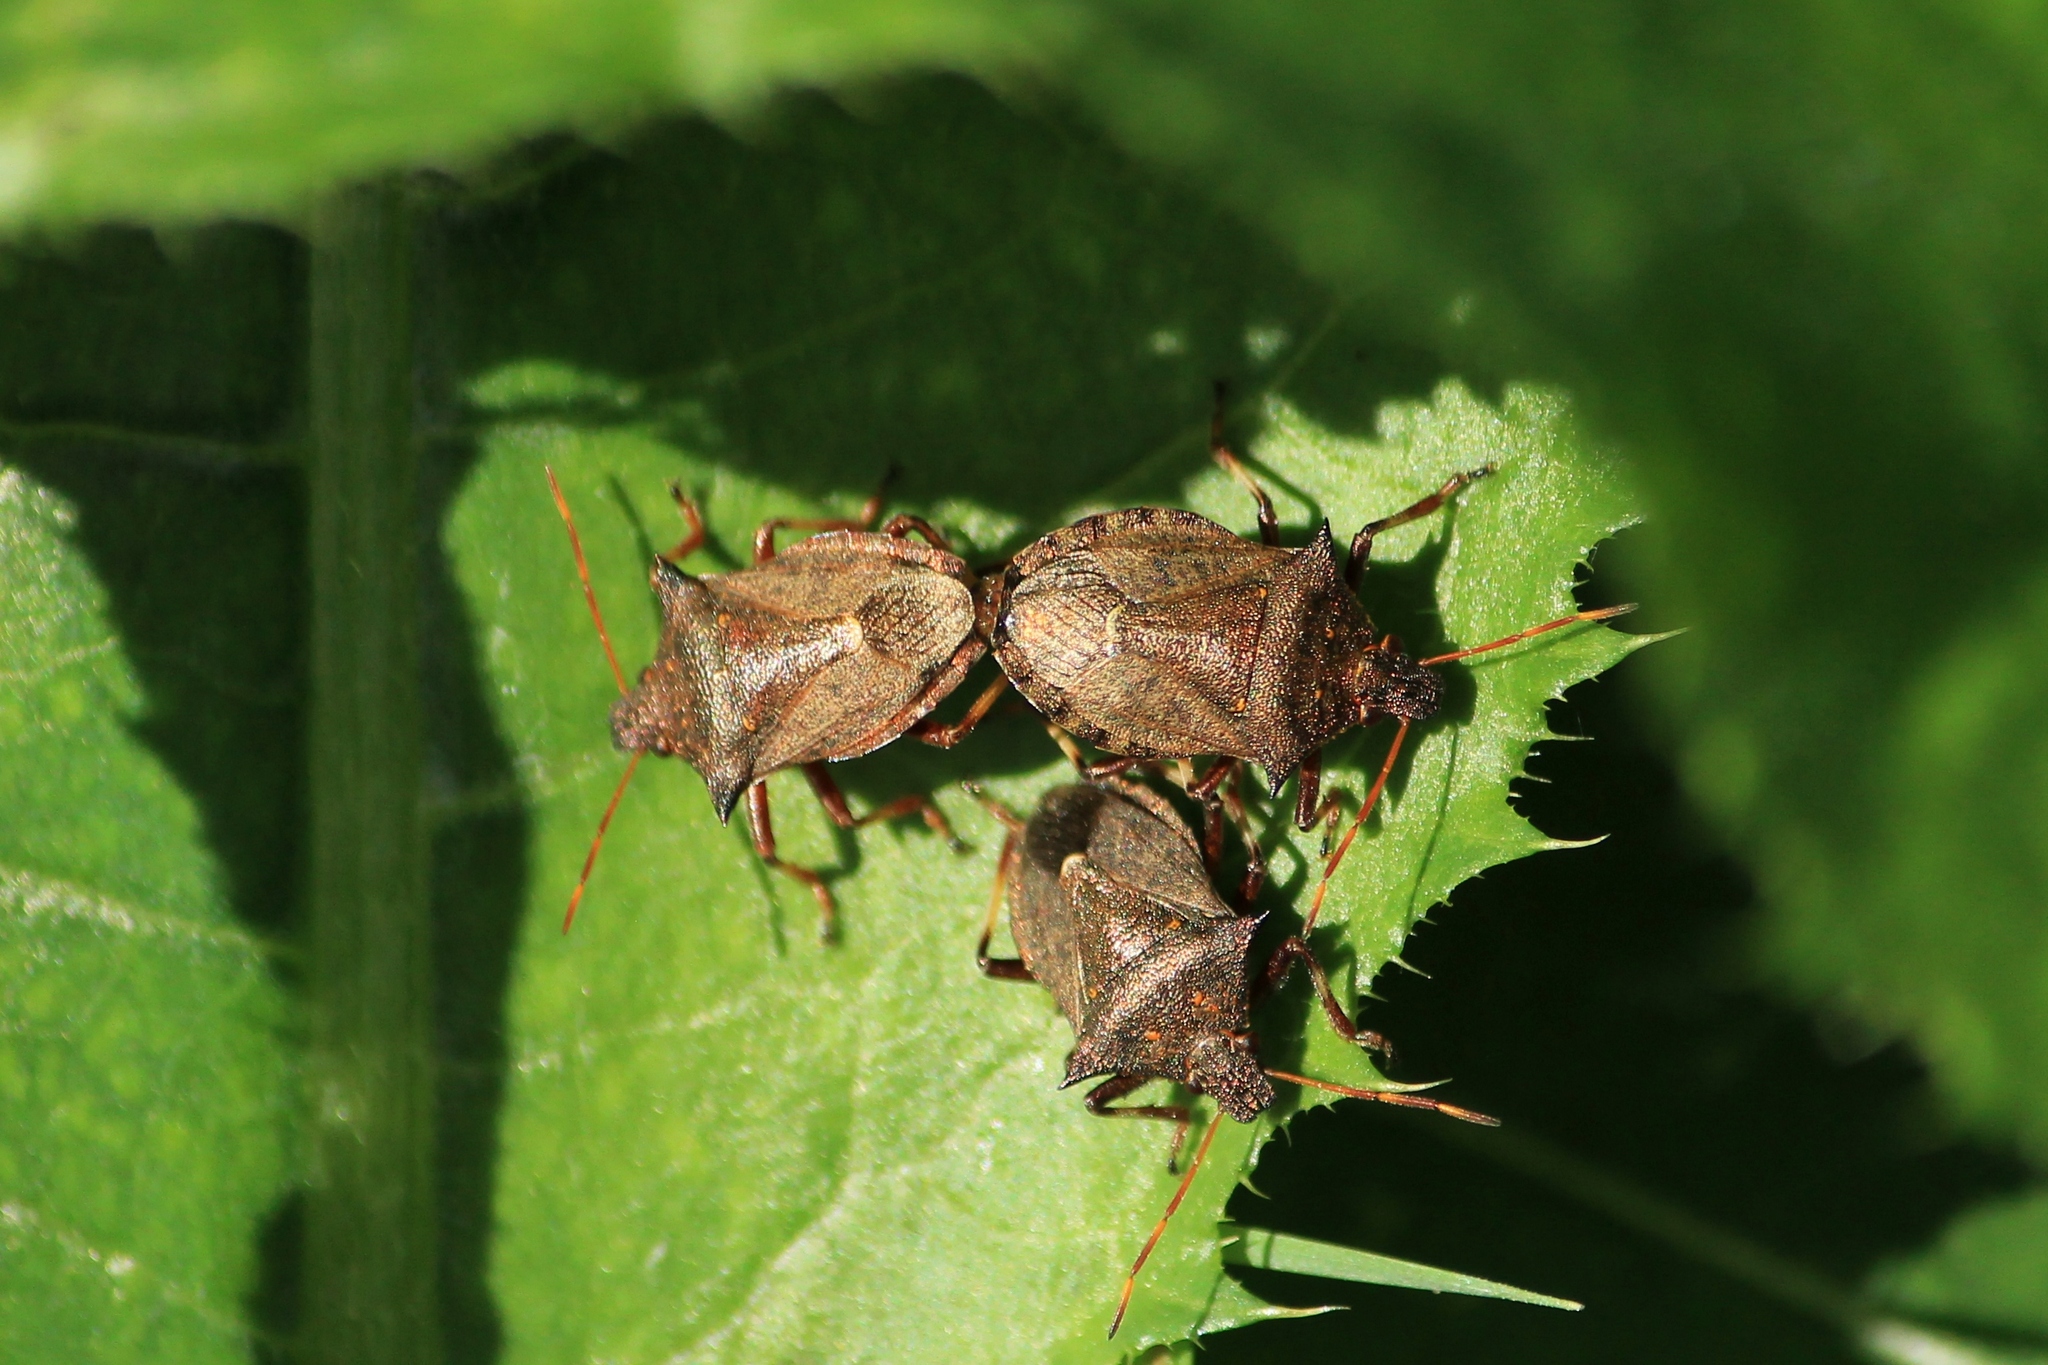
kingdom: Animalia
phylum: Arthropoda
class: Insecta
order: Hemiptera
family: Pentatomidae
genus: Picromerus
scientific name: Picromerus bidens
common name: Spiked shieldbug
